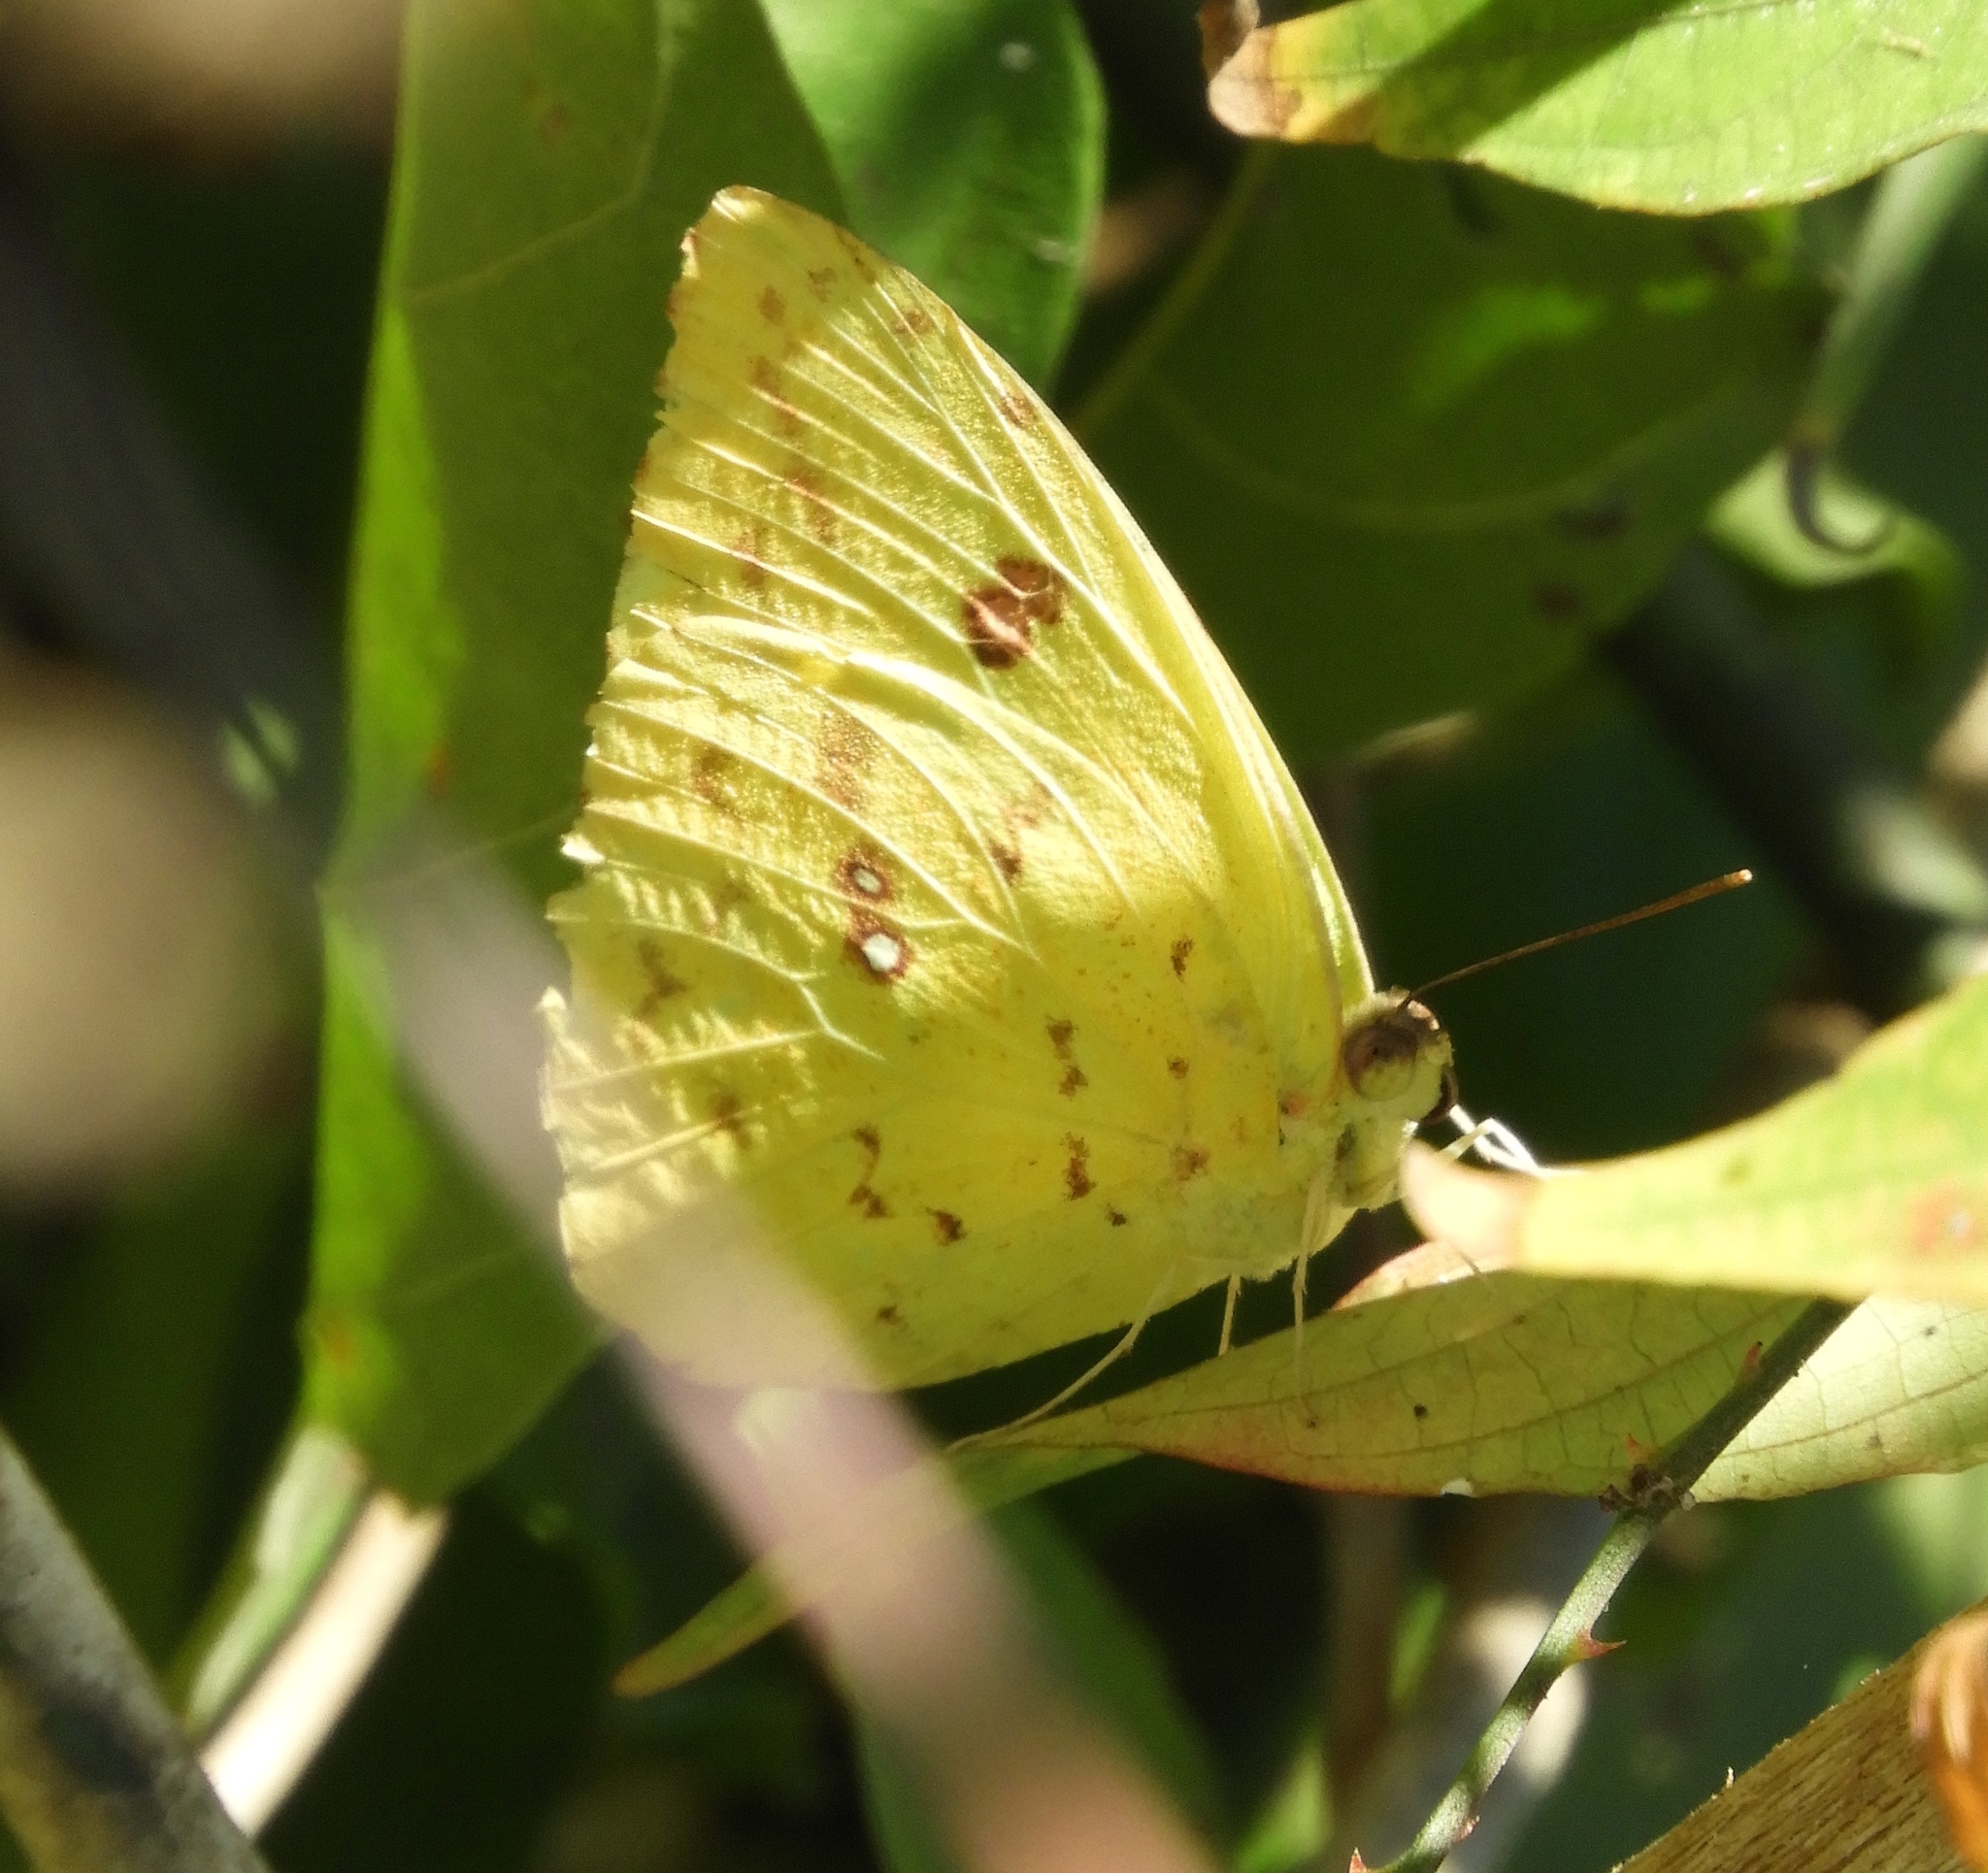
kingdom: Animalia
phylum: Arthropoda
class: Insecta
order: Lepidoptera
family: Pieridae
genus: Phoebis
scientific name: Phoebis marcellina
